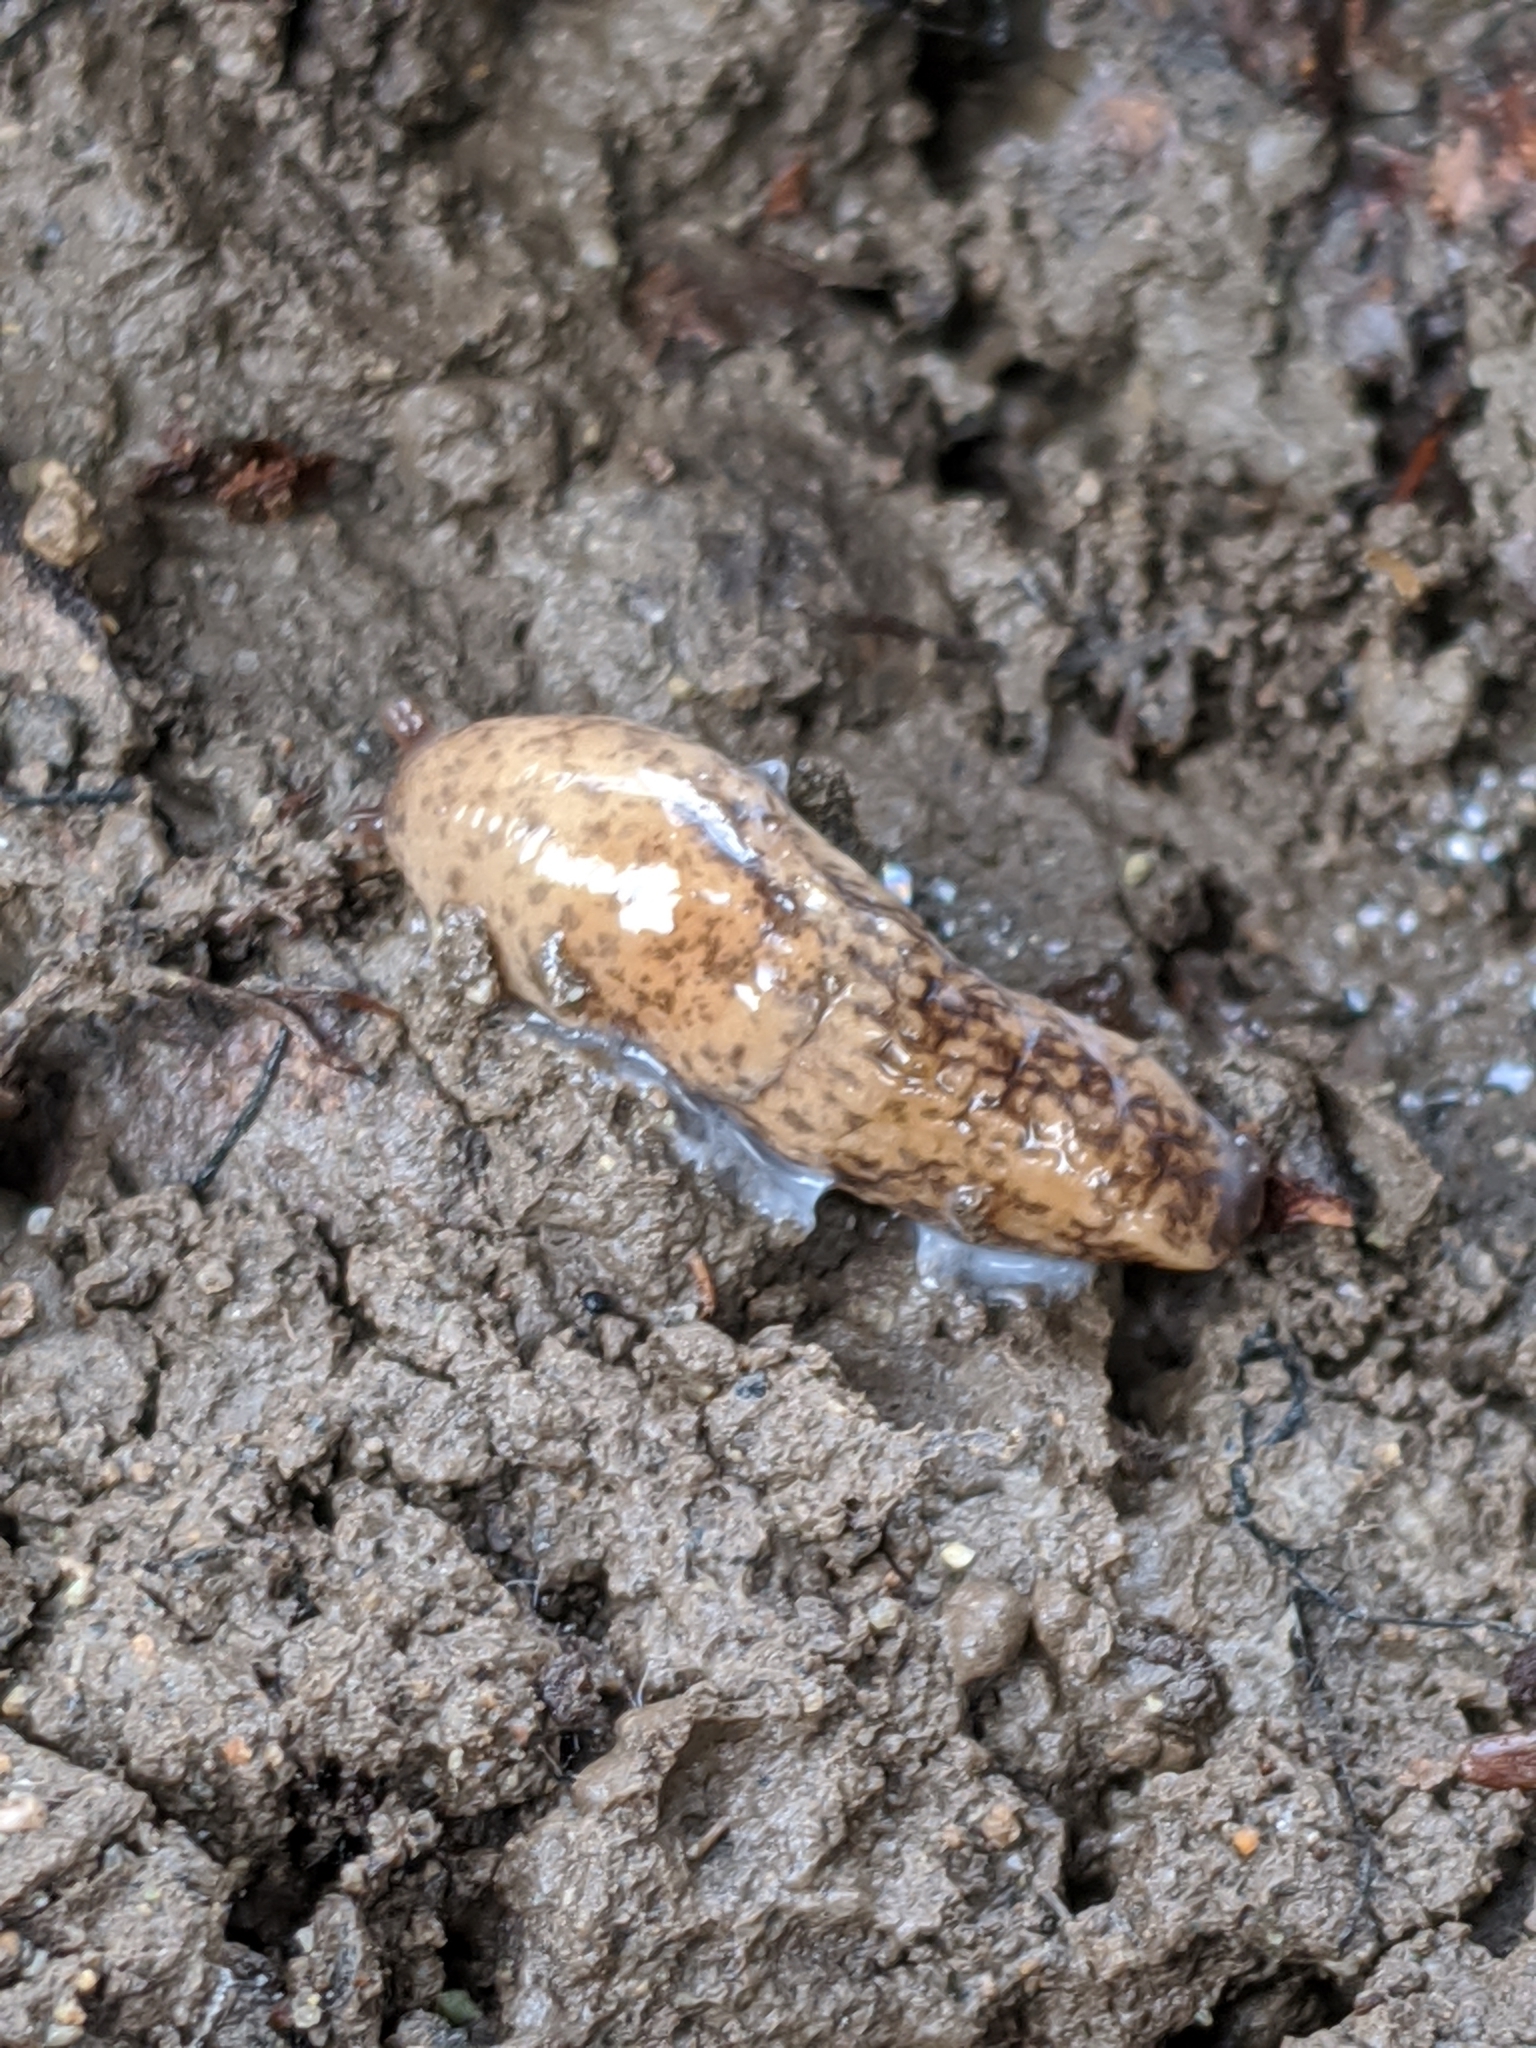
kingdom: Animalia
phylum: Mollusca
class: Gastropoda
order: Stylommatophora
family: Agriolimacidae
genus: Deroceras
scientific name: Deroceras reticulatum
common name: Gray field slug
